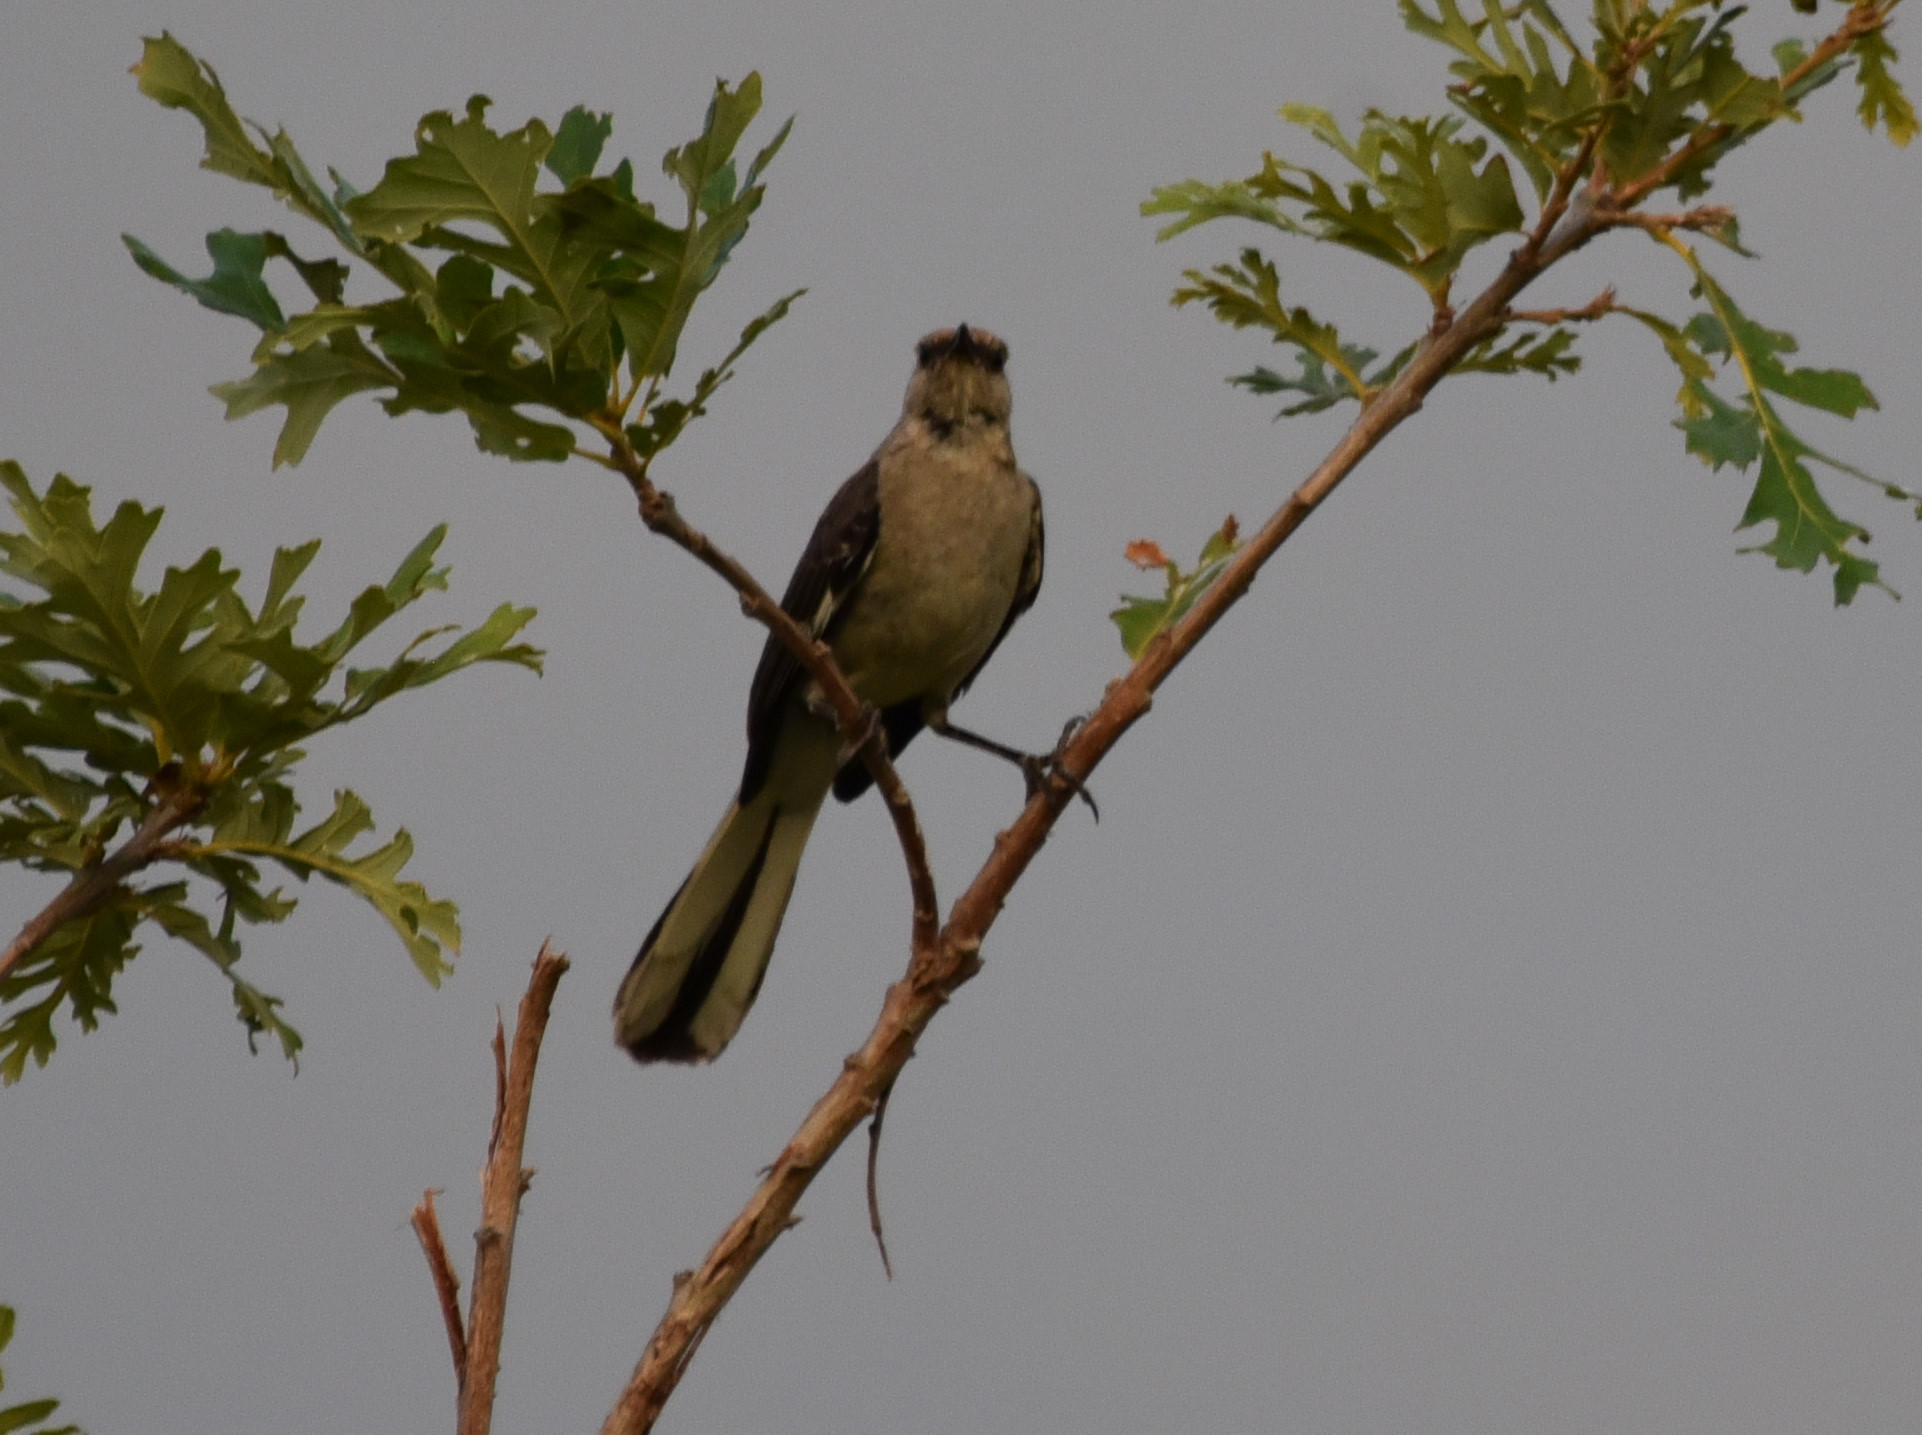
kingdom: Animalia
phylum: Chordata
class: Aves
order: Passeriformes
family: Mimidae
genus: Mimus
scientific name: Mimus polyglottos
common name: Northern mockingbird
